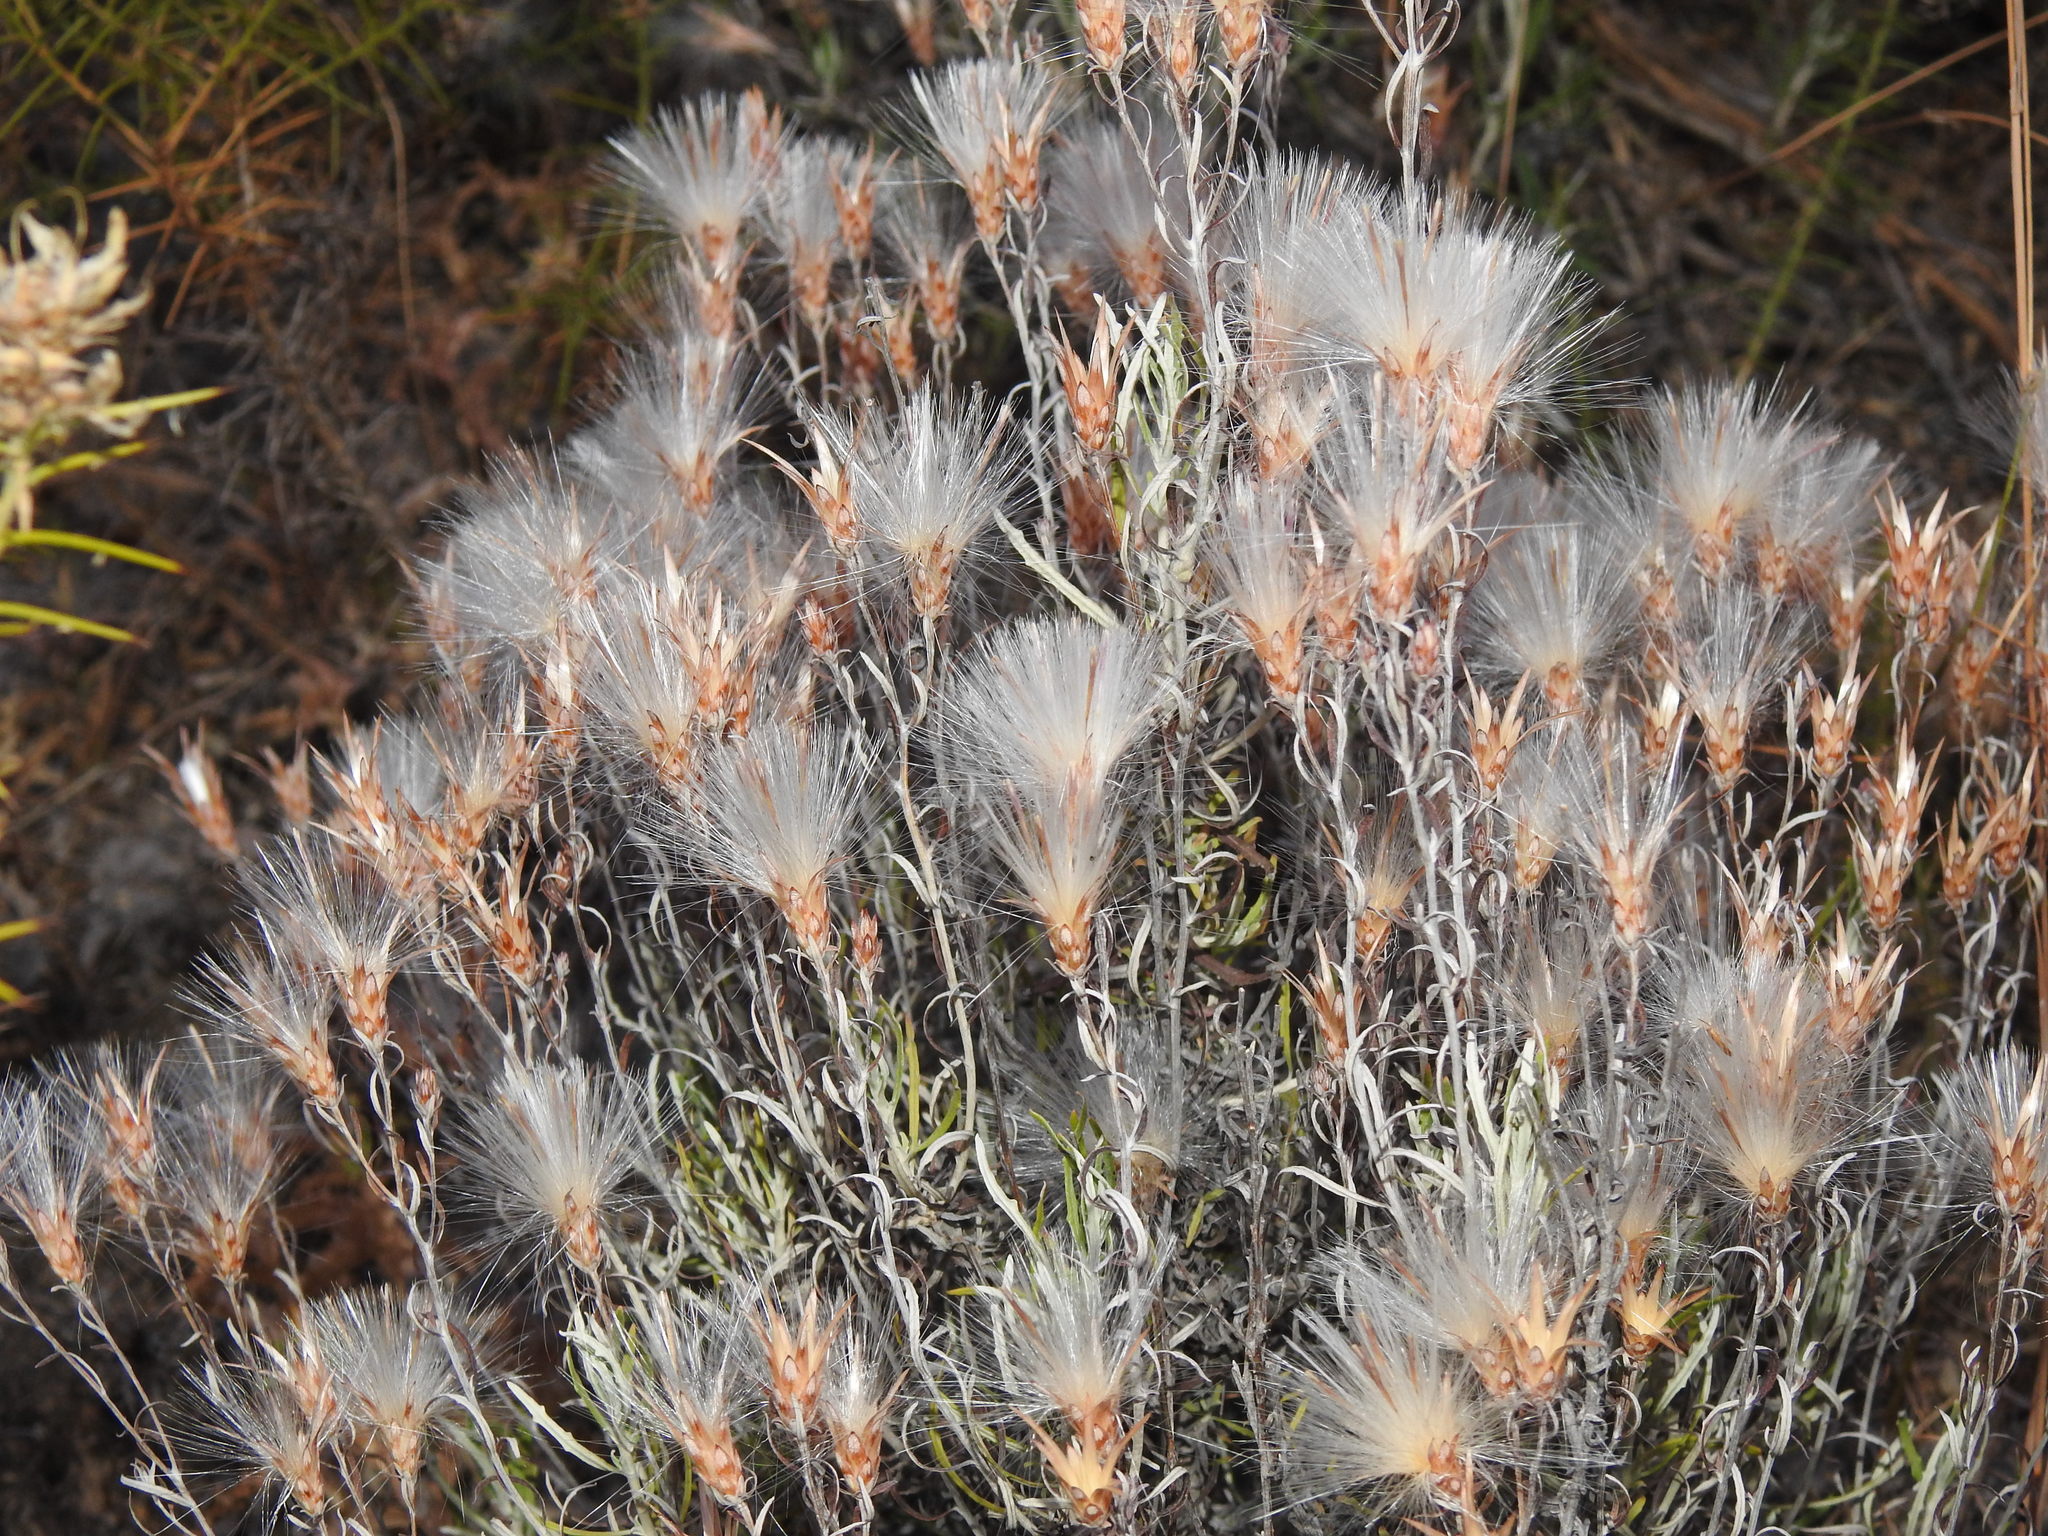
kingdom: Plantae
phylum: Tracheophyta
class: Magnoliopsida
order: Asterales
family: Asteraceae
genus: Staehelina
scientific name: Staehelina dubia
